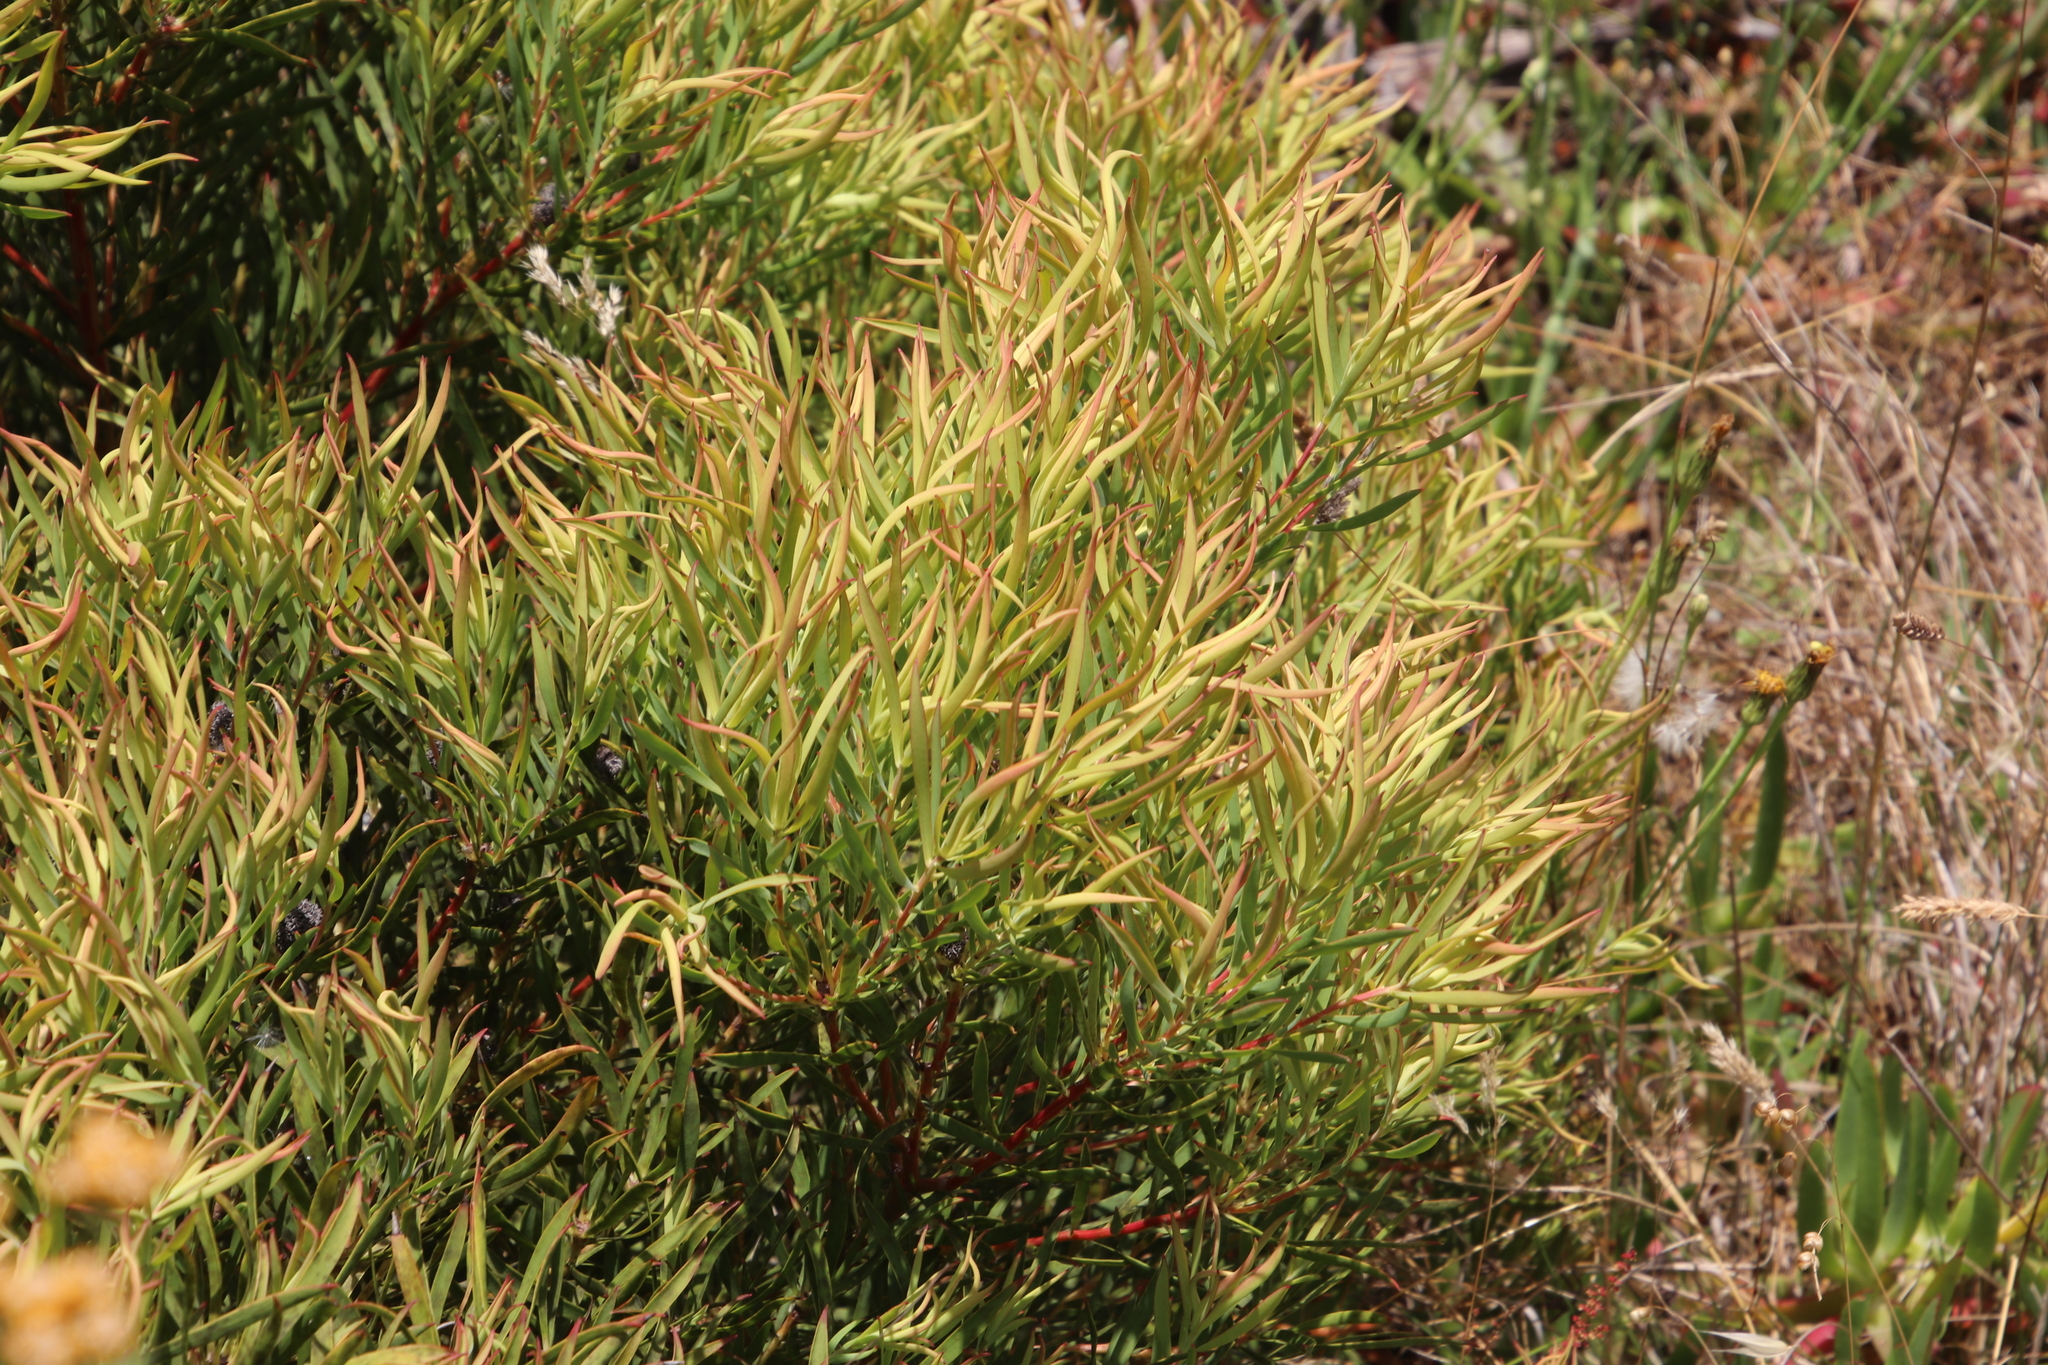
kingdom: Plantae
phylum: Tracheophyta
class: Magnoliopsida
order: Proteales
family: Proteaceae
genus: Leucadendron
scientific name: Leucadendron salignum
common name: Common sunshine conebush
